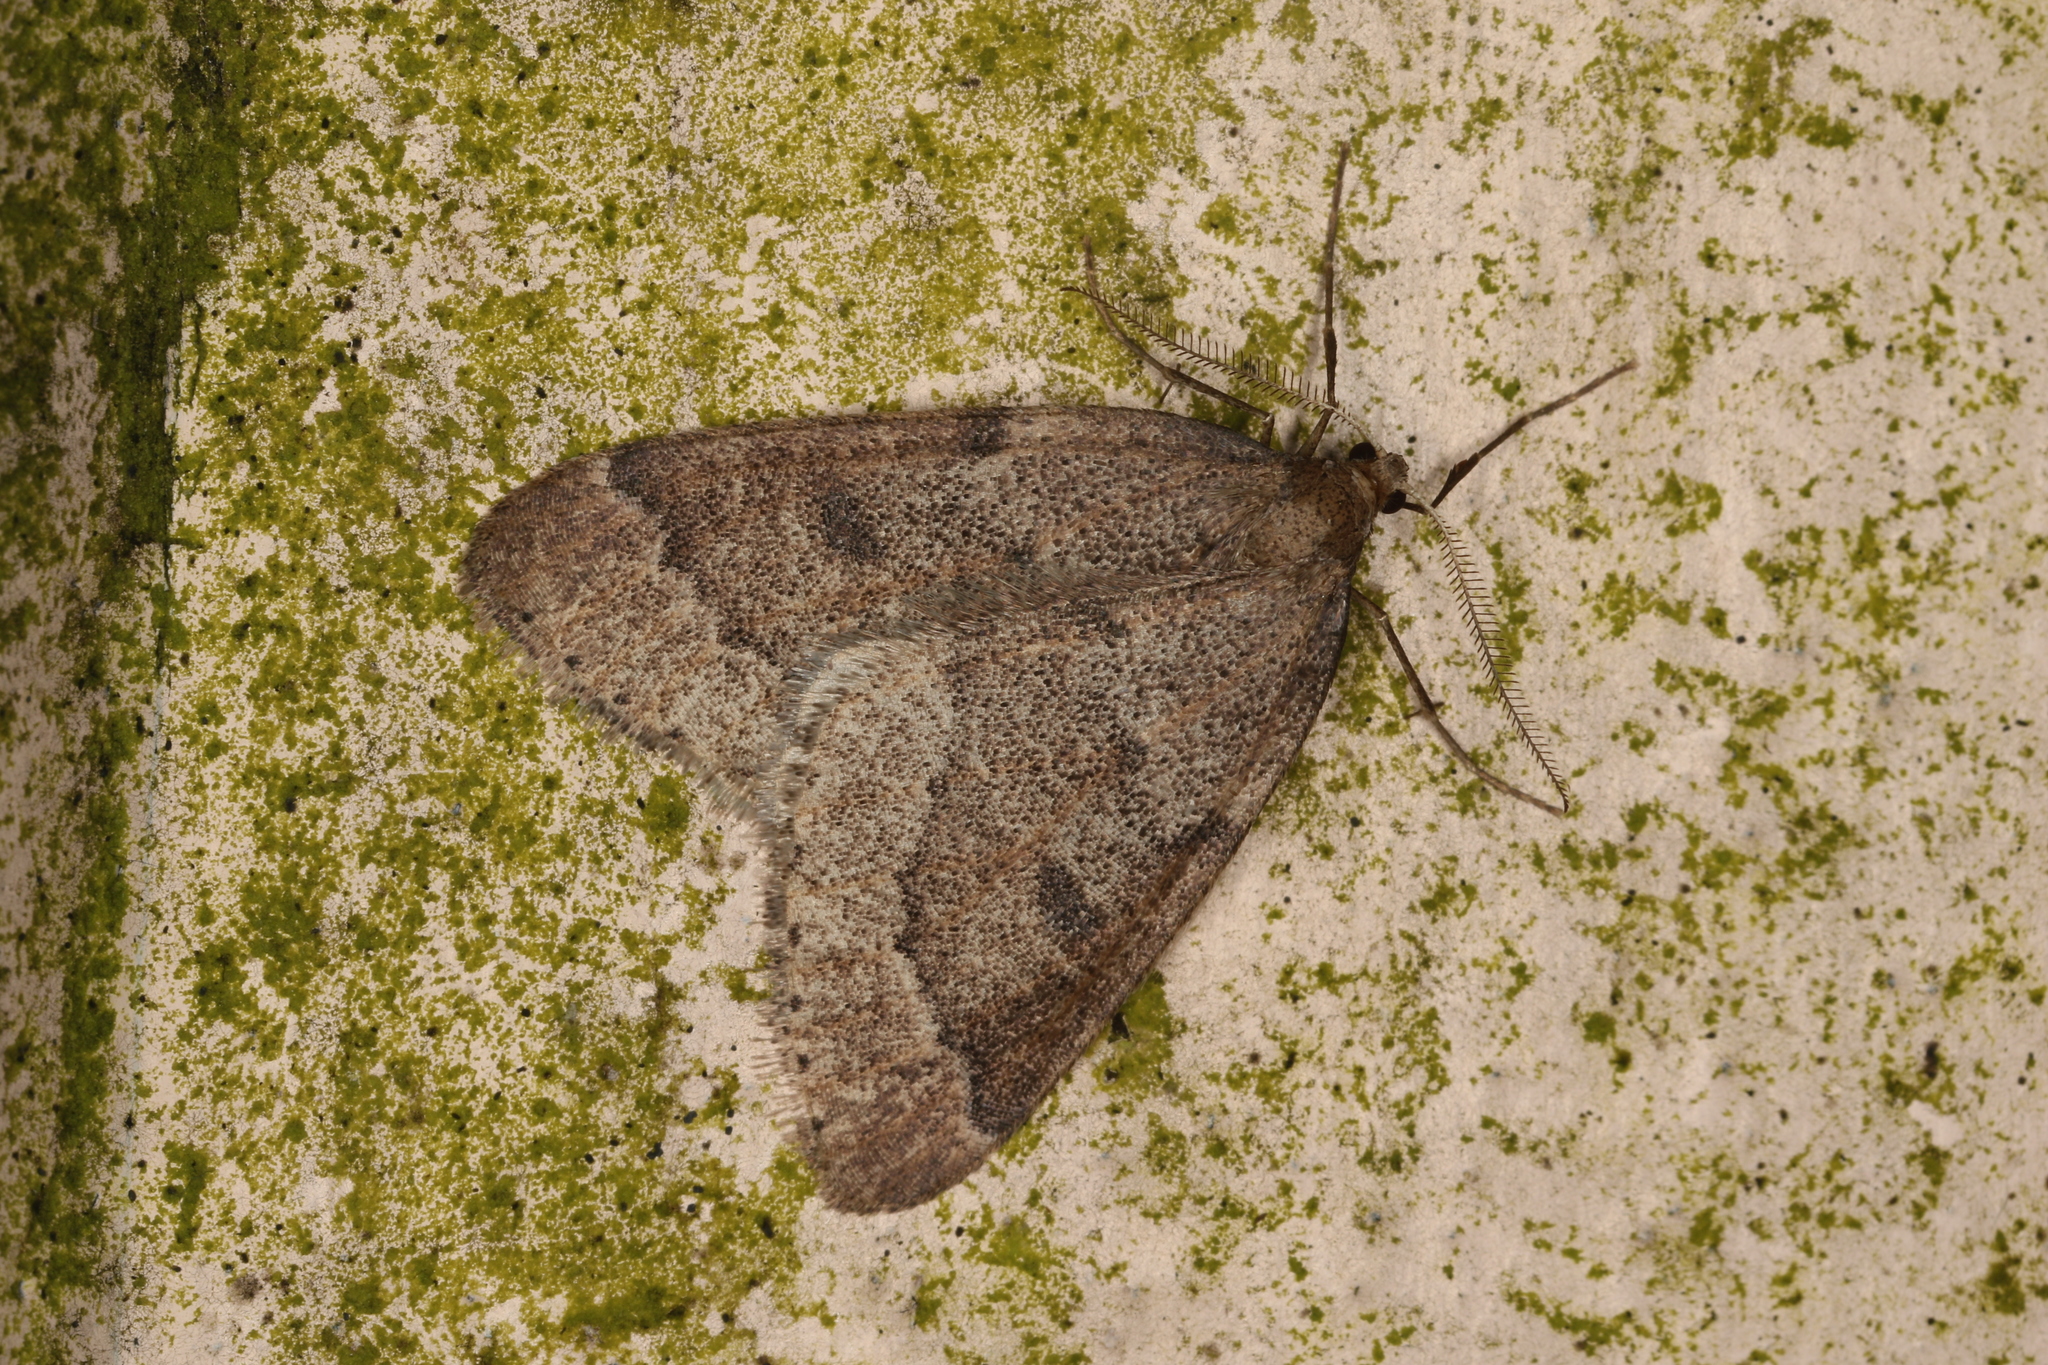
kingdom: Animalia
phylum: Arthropoda
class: Insecta
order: Lepidoptera
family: Geometridae
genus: Theria
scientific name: Theria rupicapraria
